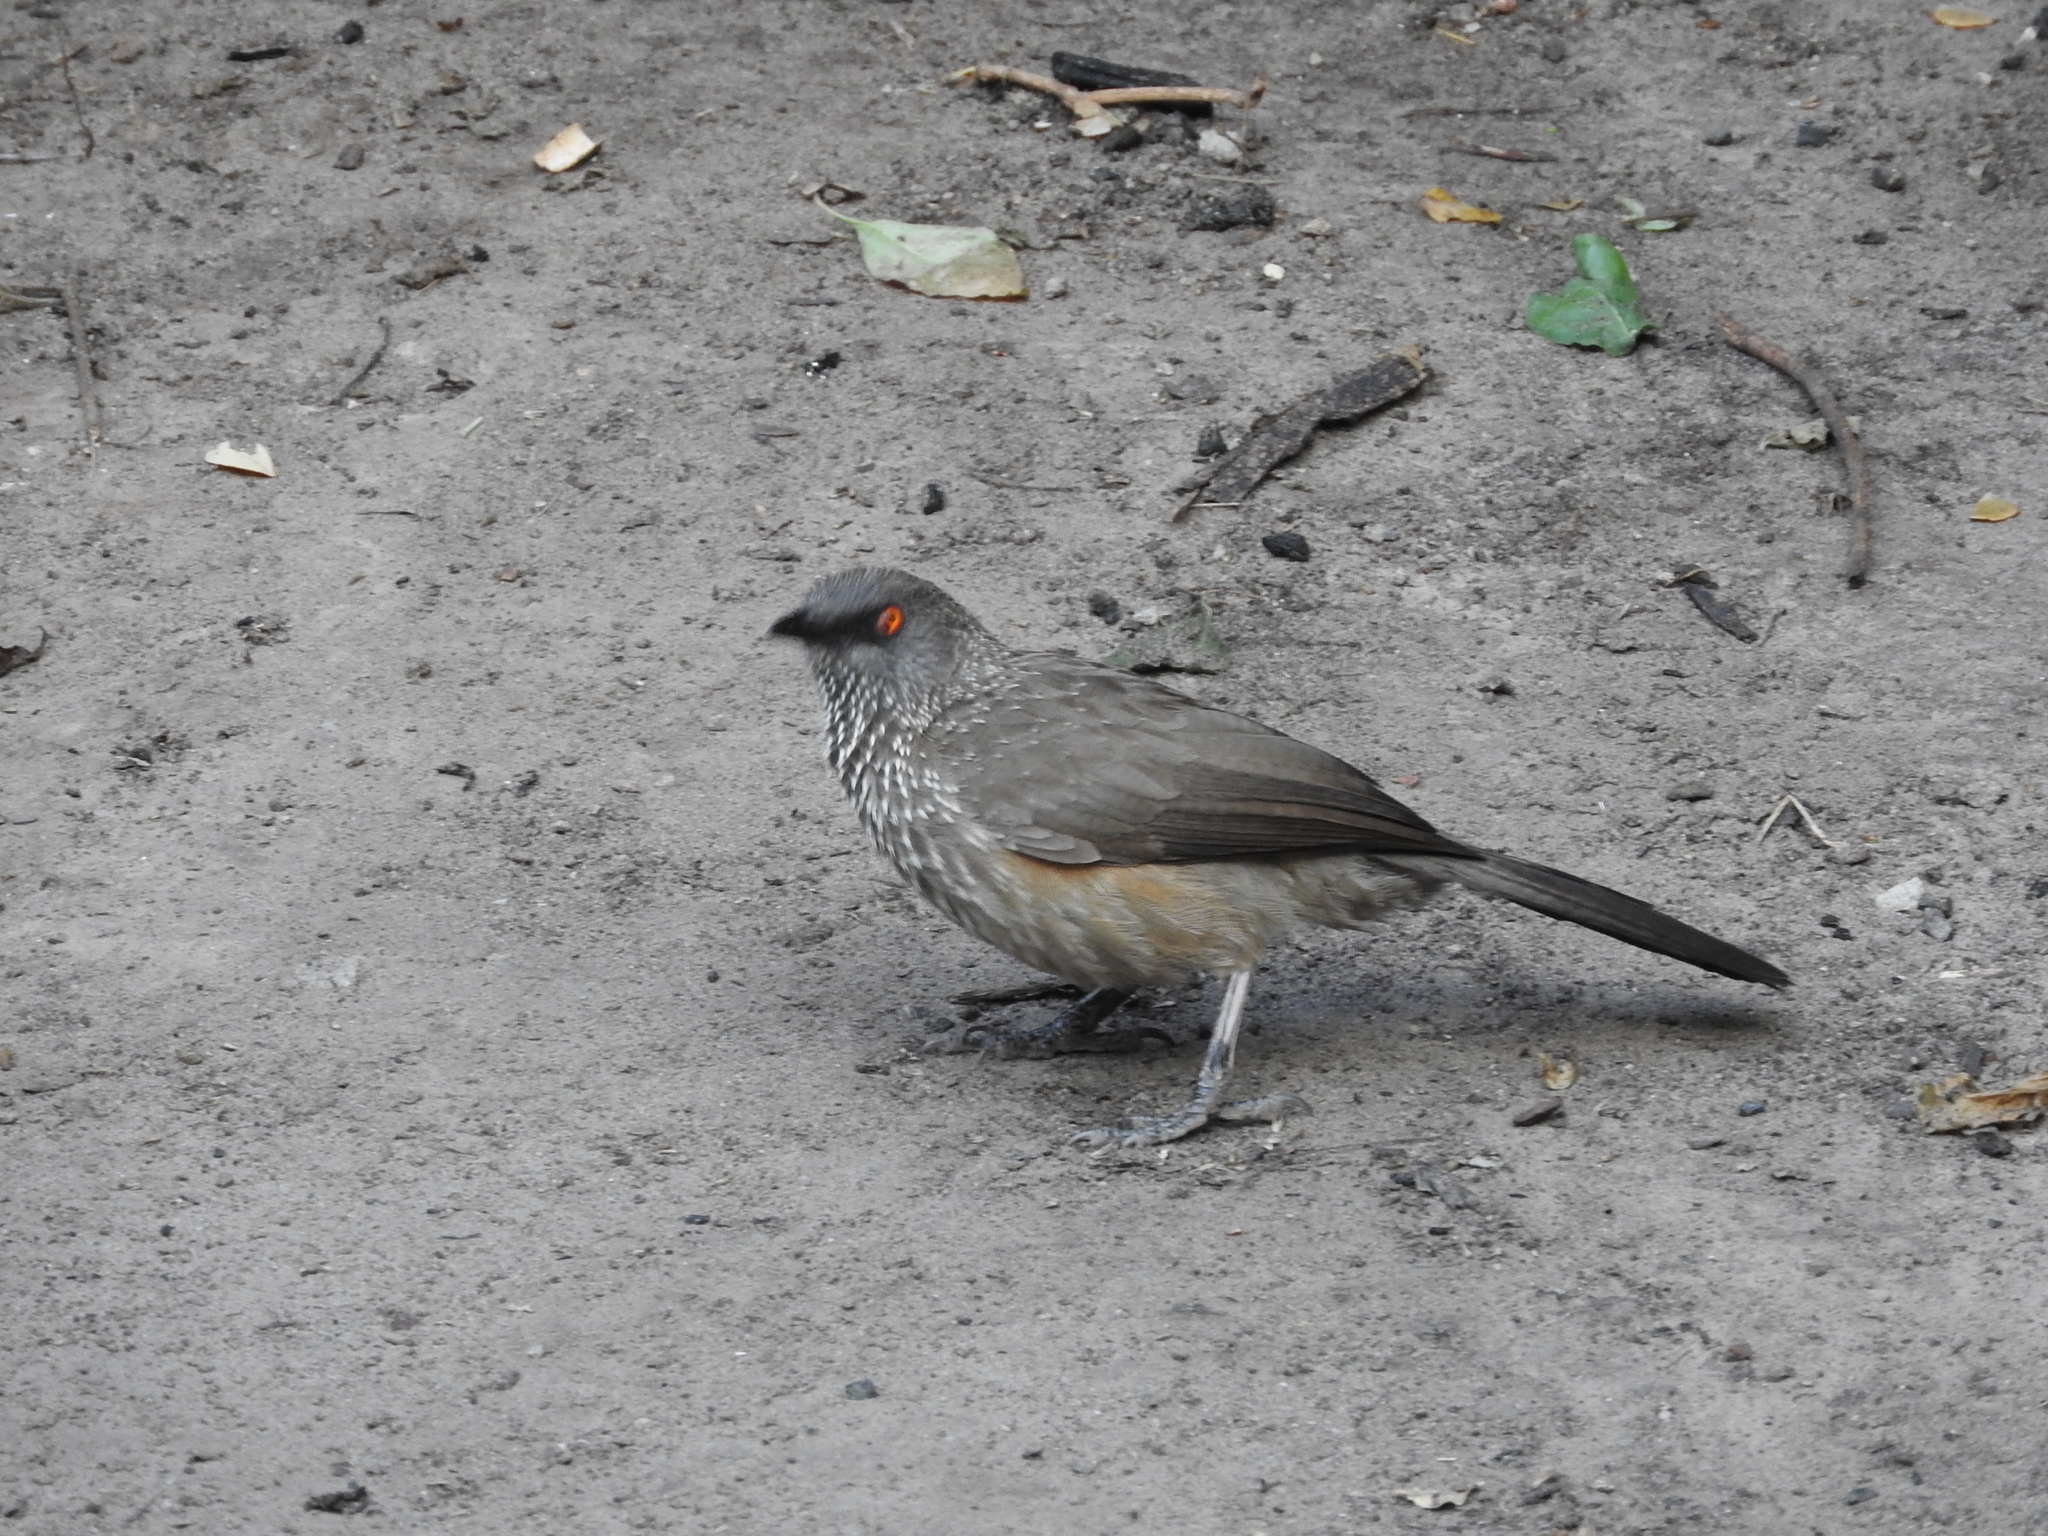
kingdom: Animalia
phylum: Chordata
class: Aves
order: Passeriformes
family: Leiothrichidae
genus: Turdoides
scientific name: Turdoides jardineii
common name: Arrow-marked babbler
